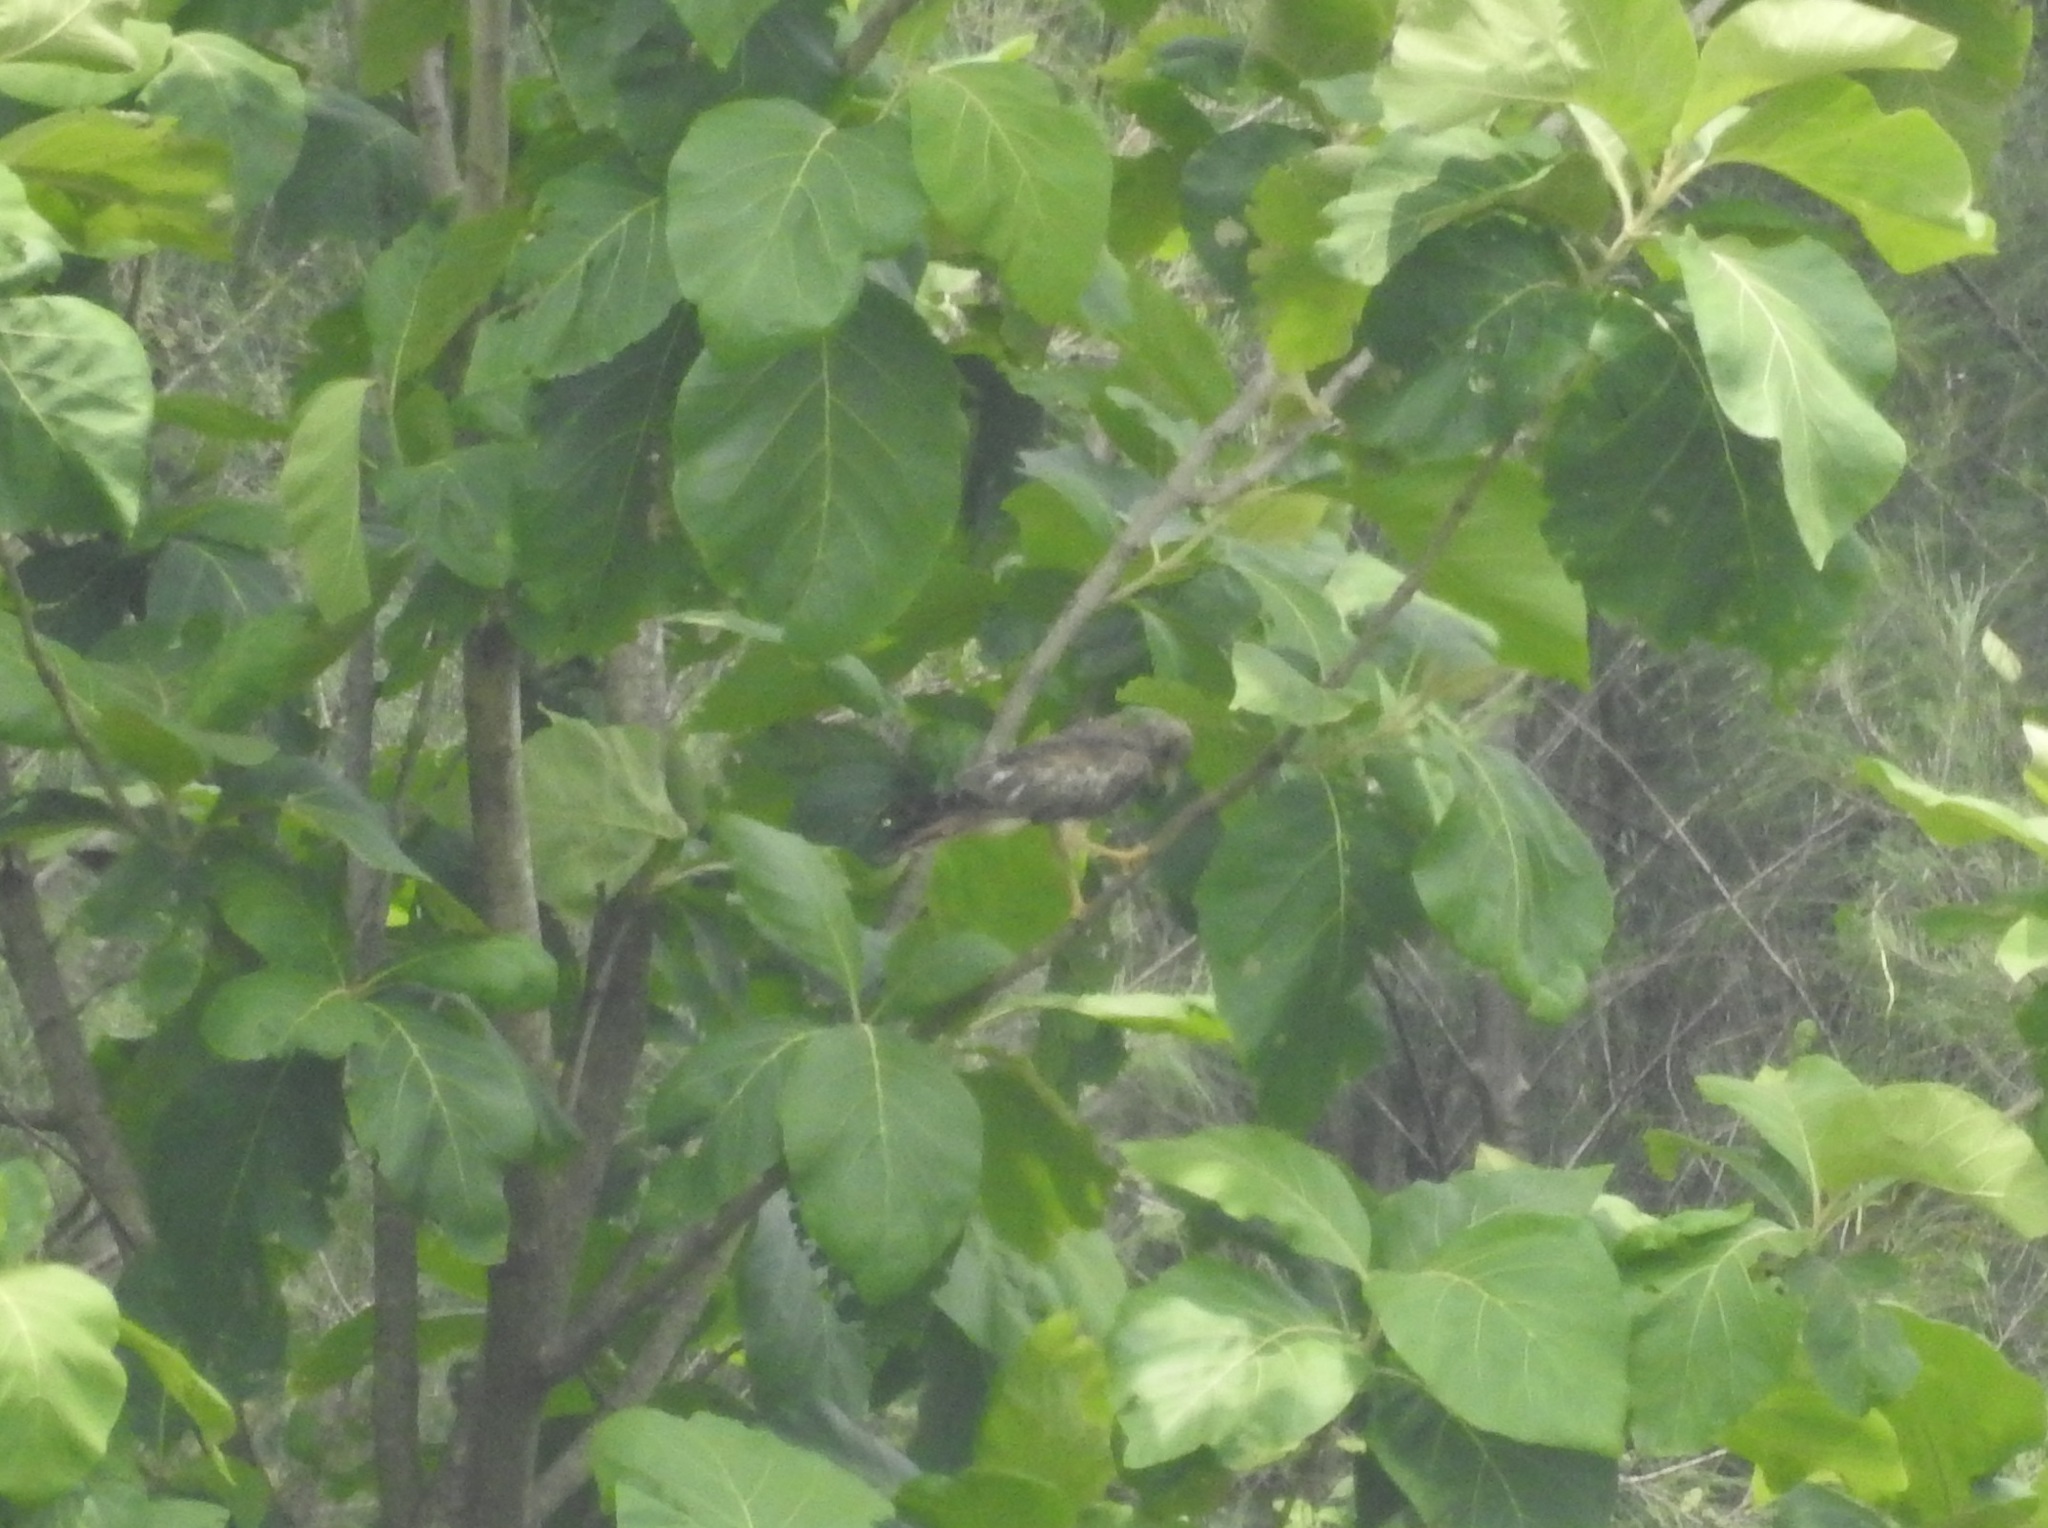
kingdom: Animalia
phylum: Chordata
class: Aves
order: Accipitriformes
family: Accipitridae
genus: Butastur
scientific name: Butastur teesa
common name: White-eyed buzzard
